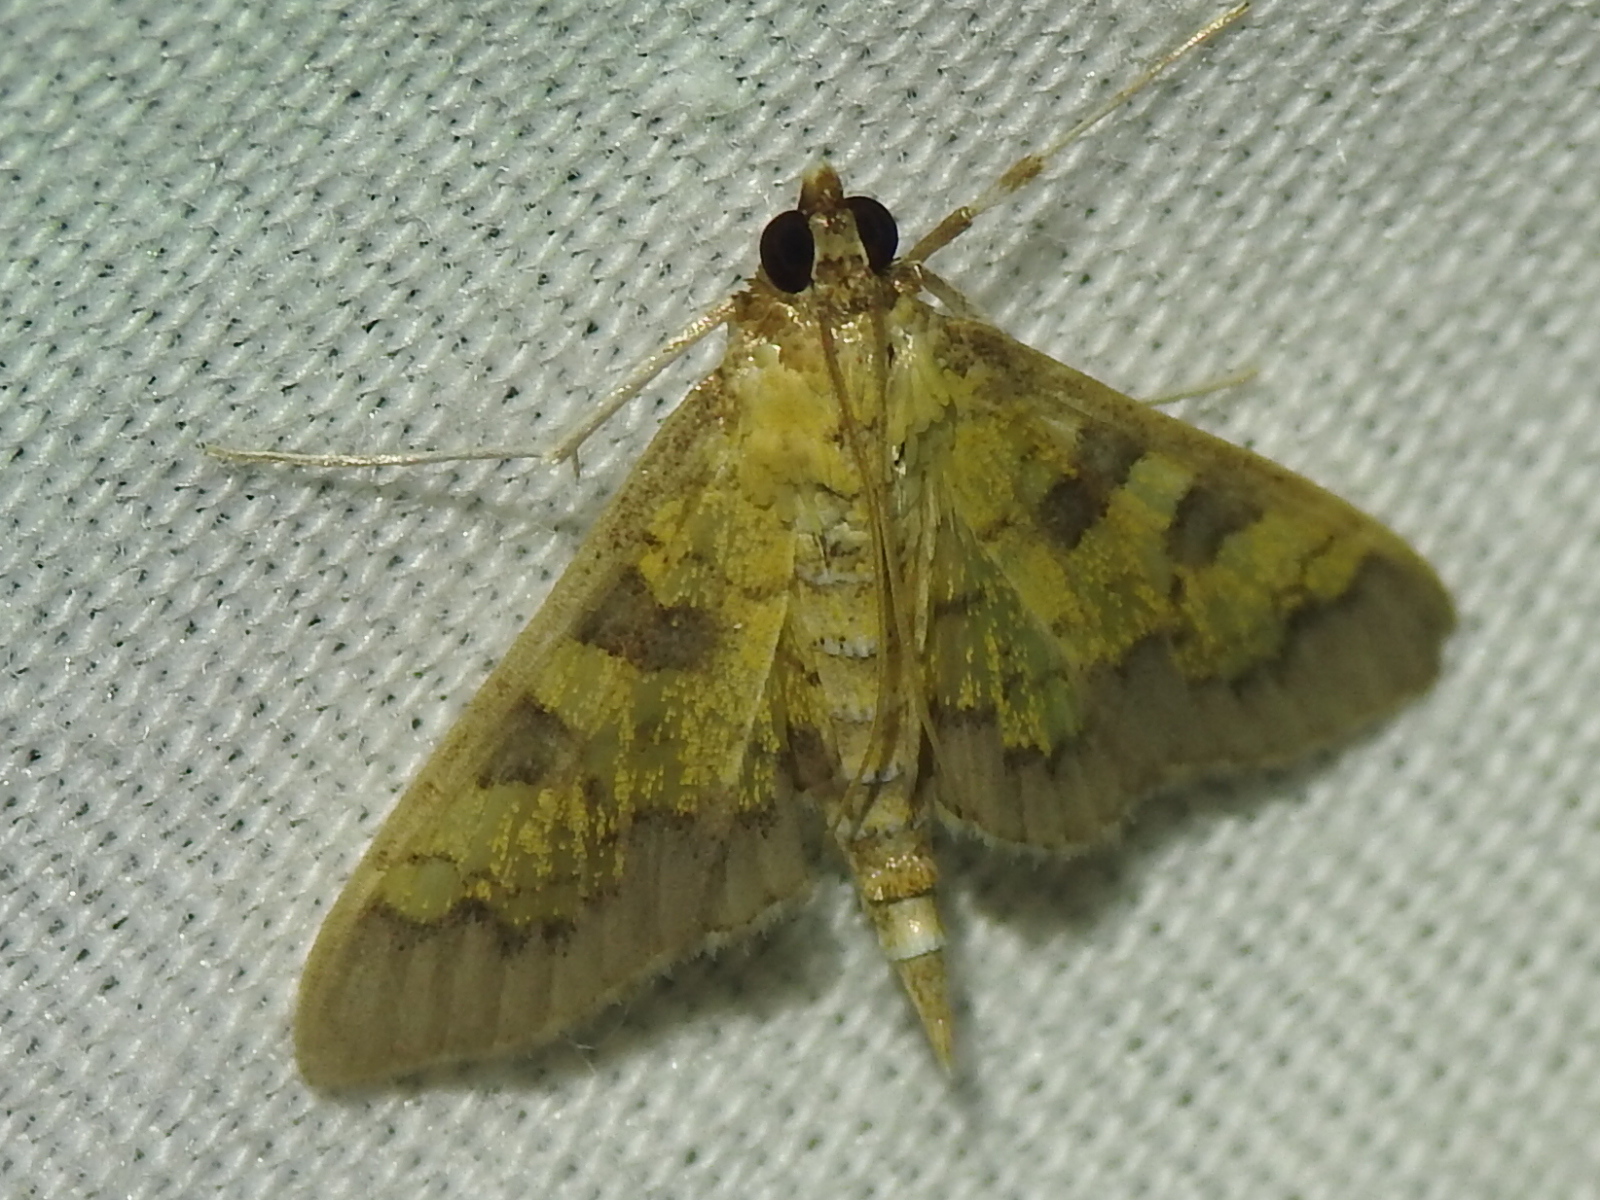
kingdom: Animalia
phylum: Arthropoda
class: Insecta
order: Lepidoptera
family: Crambidae
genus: Cryptographis
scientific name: Cryptographis elealis
